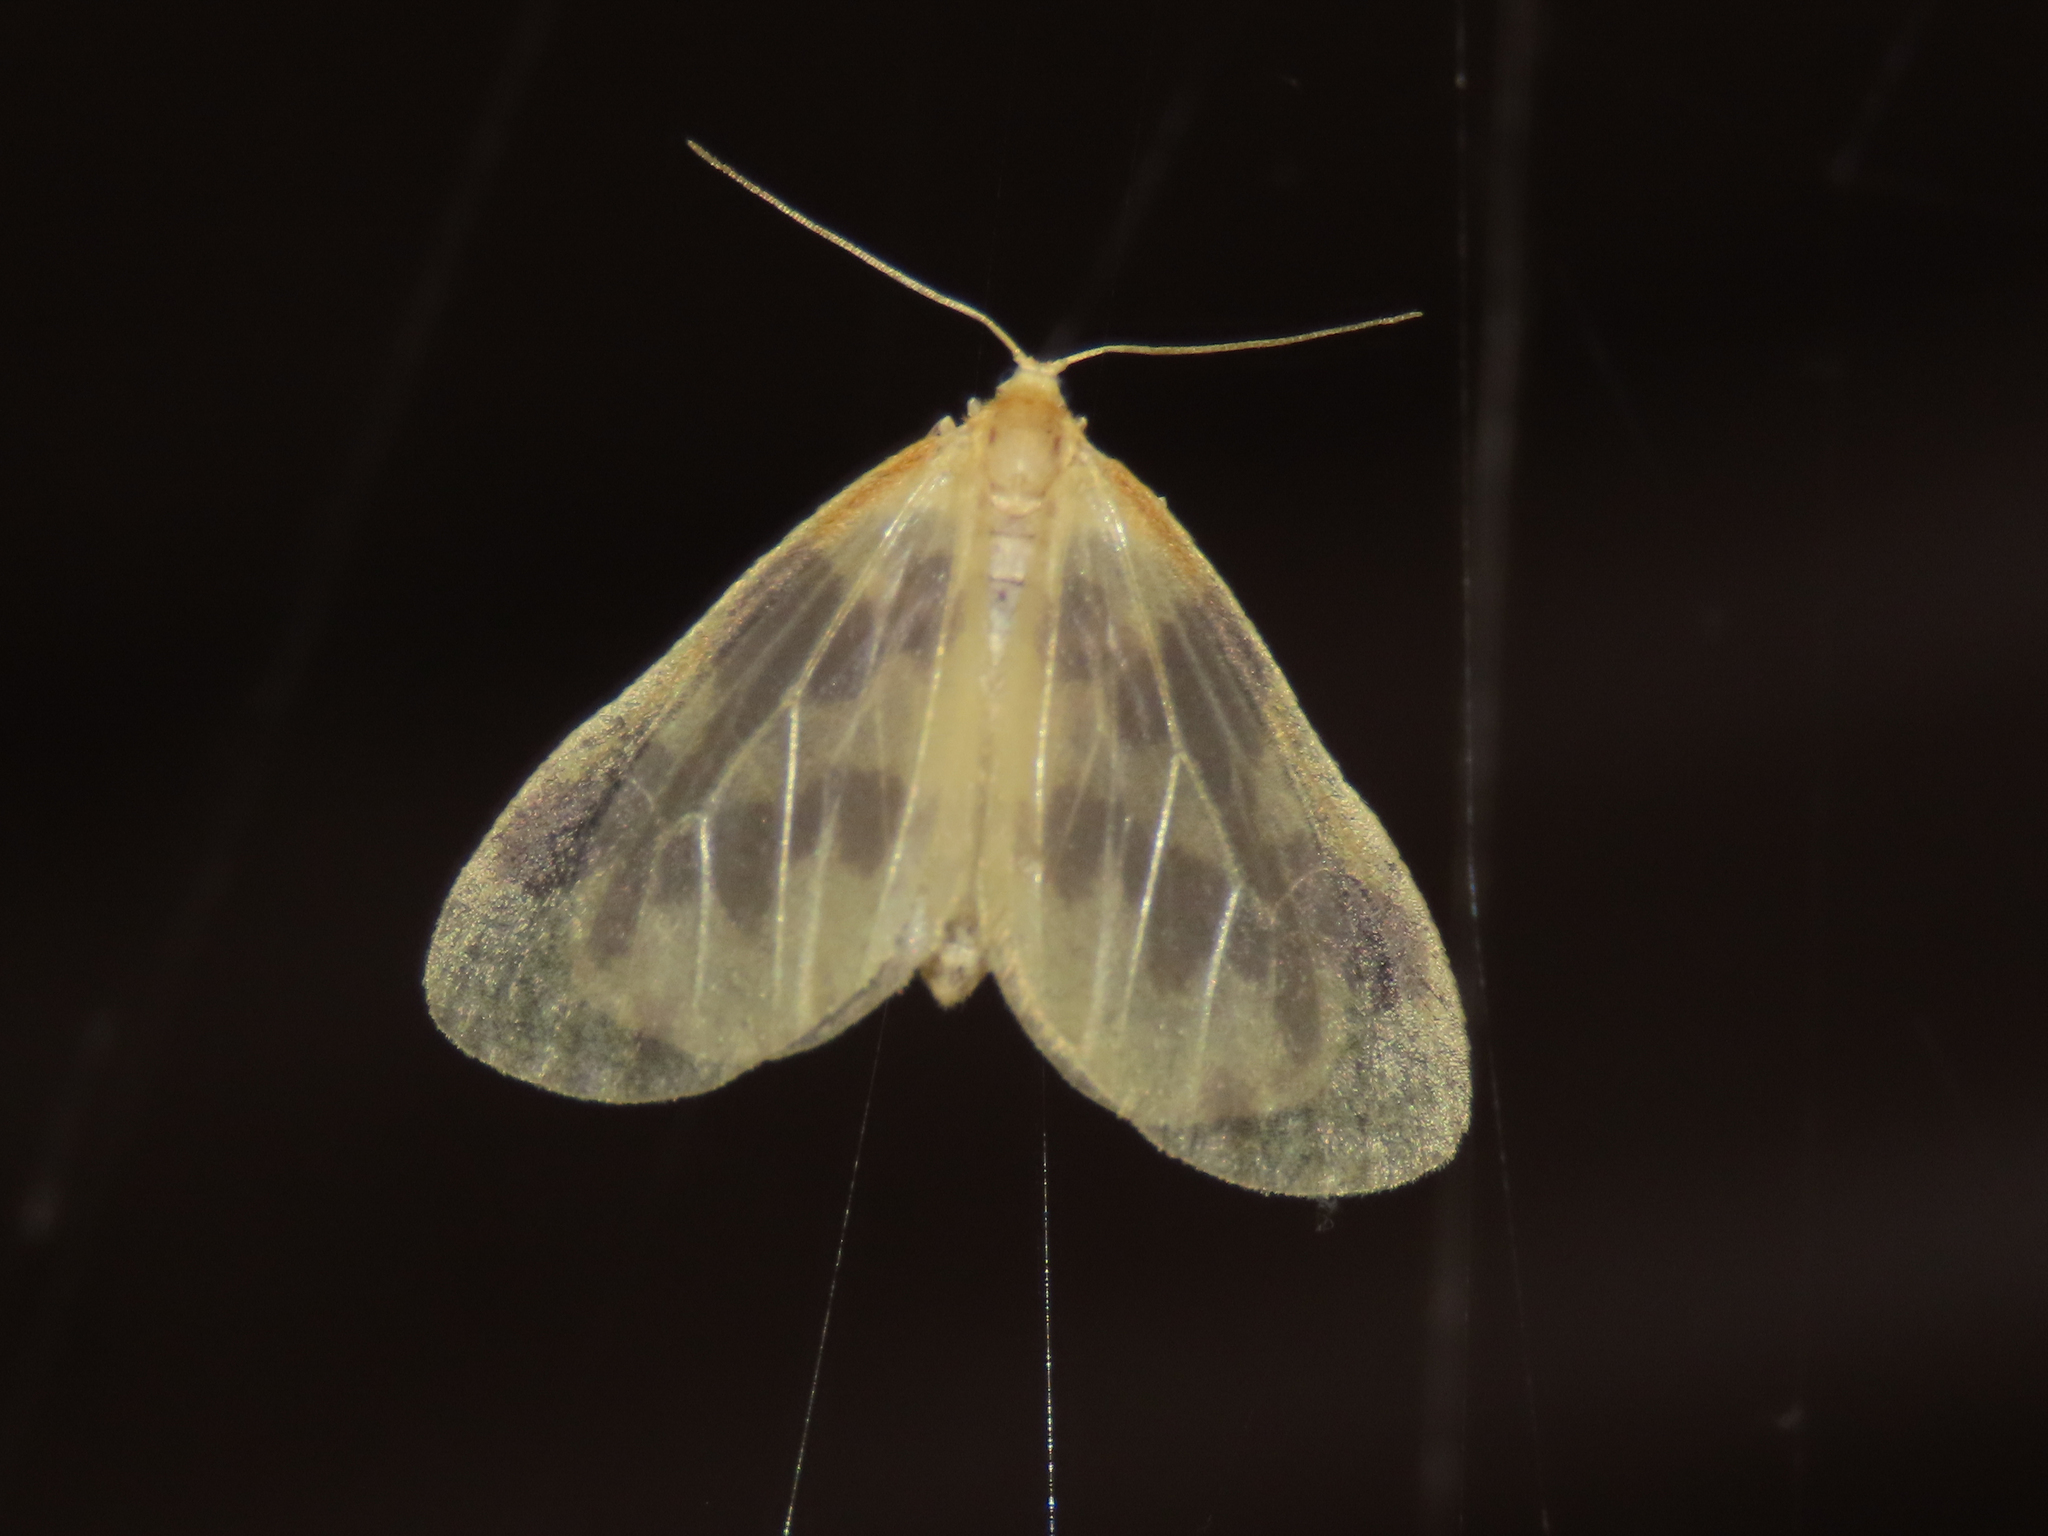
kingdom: Animalia
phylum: Arthropoda
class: Insecta
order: Lepidoptera
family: Geometridae
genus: Eubaphe
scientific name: Eubaphe mendica
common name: Beggar
